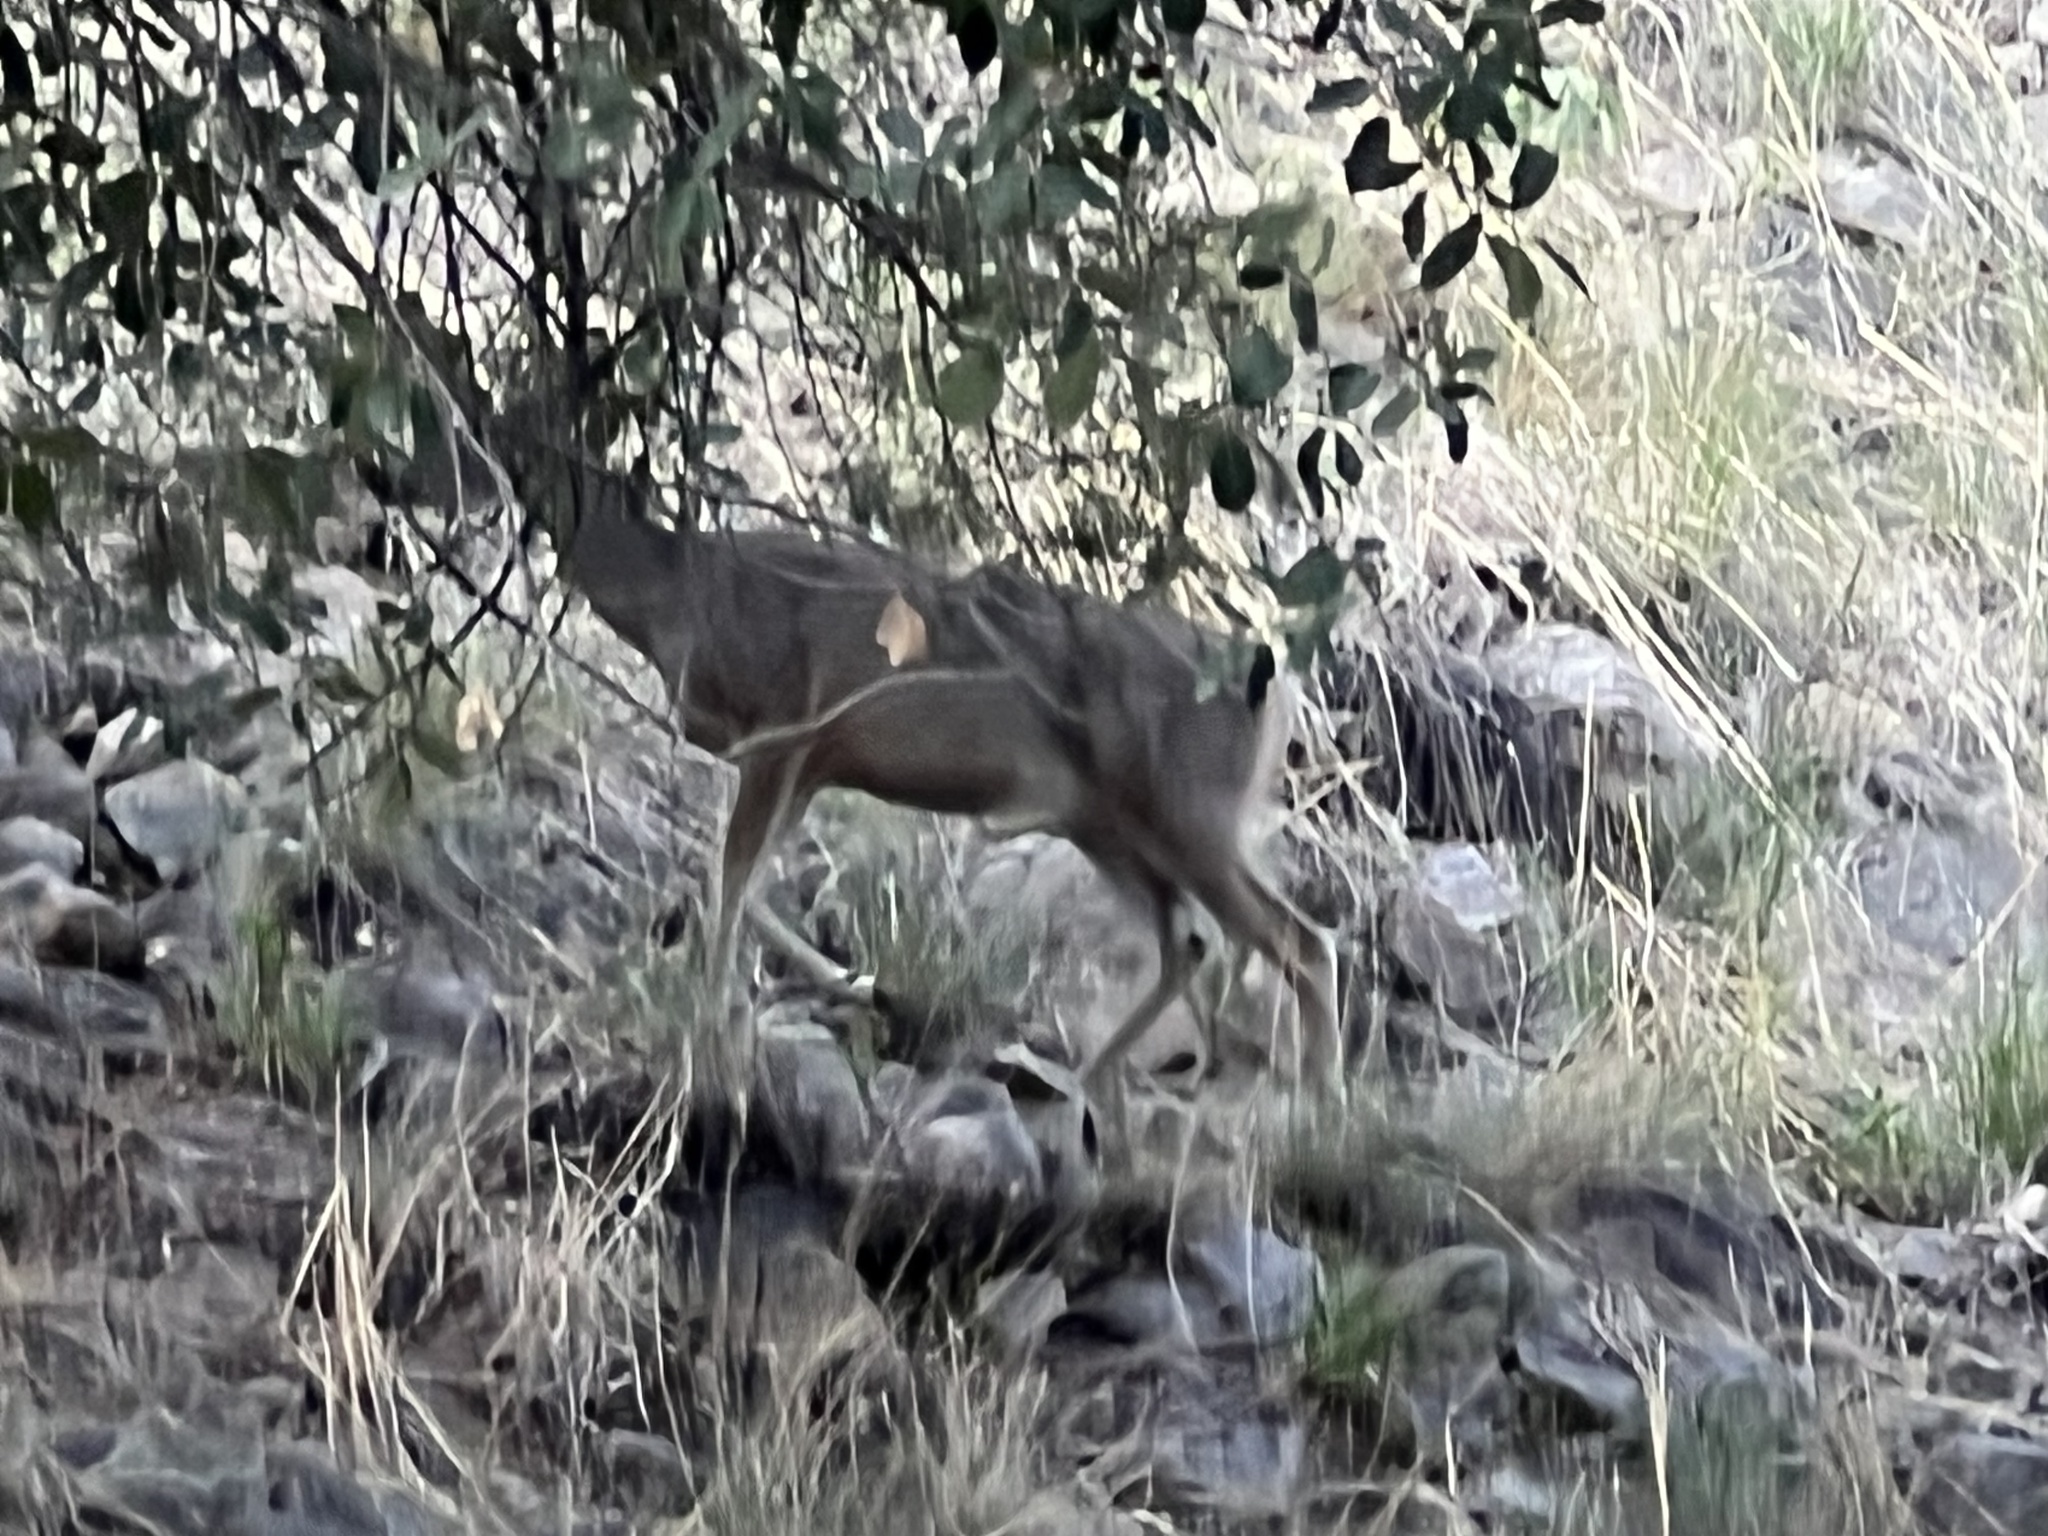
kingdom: Animalia
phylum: Chordata
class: Mammalia
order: Artiodactyla
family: Cervidae
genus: Odocoileus
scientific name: Odocoileus virginianus
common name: White-tailed deer
